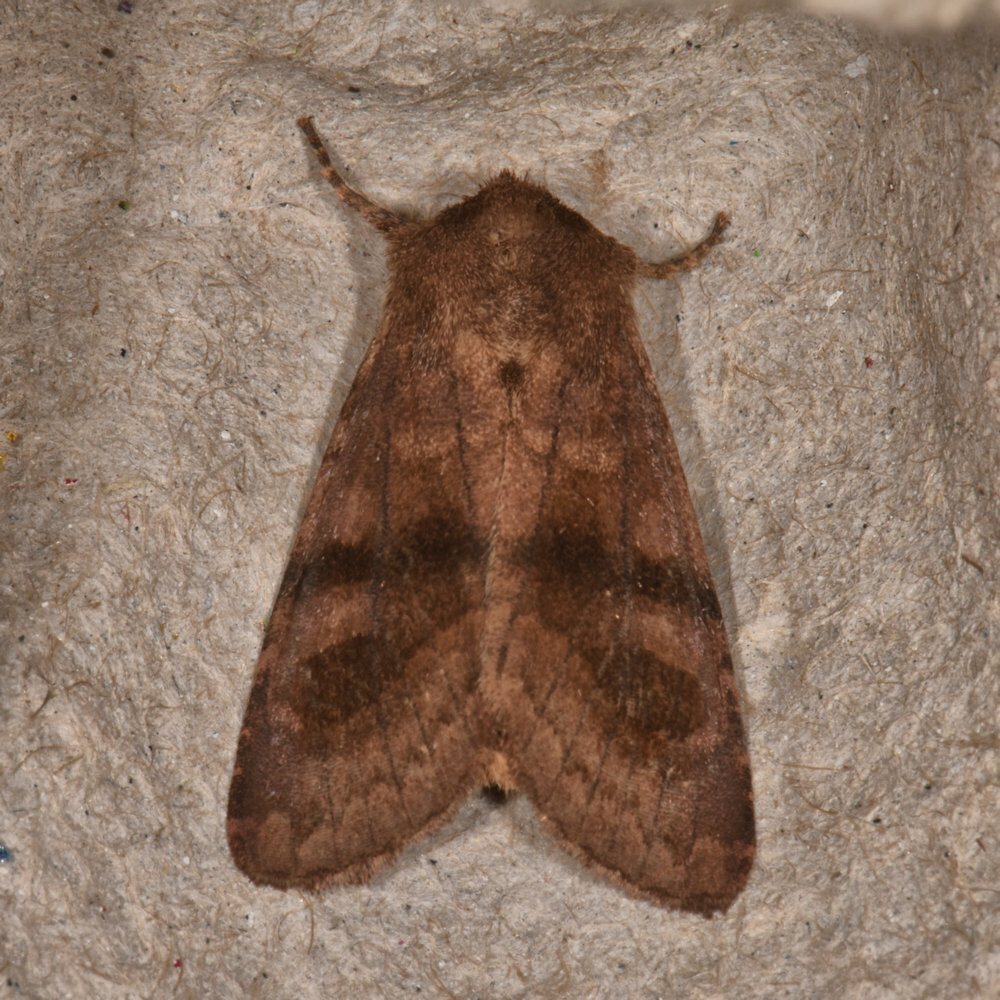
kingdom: Animalia
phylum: Arthropoda
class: Insecta
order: Lepidoptera
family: Noctuidae
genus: Nephelodes
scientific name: Nephelodes minians
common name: Bronzed cutworm
